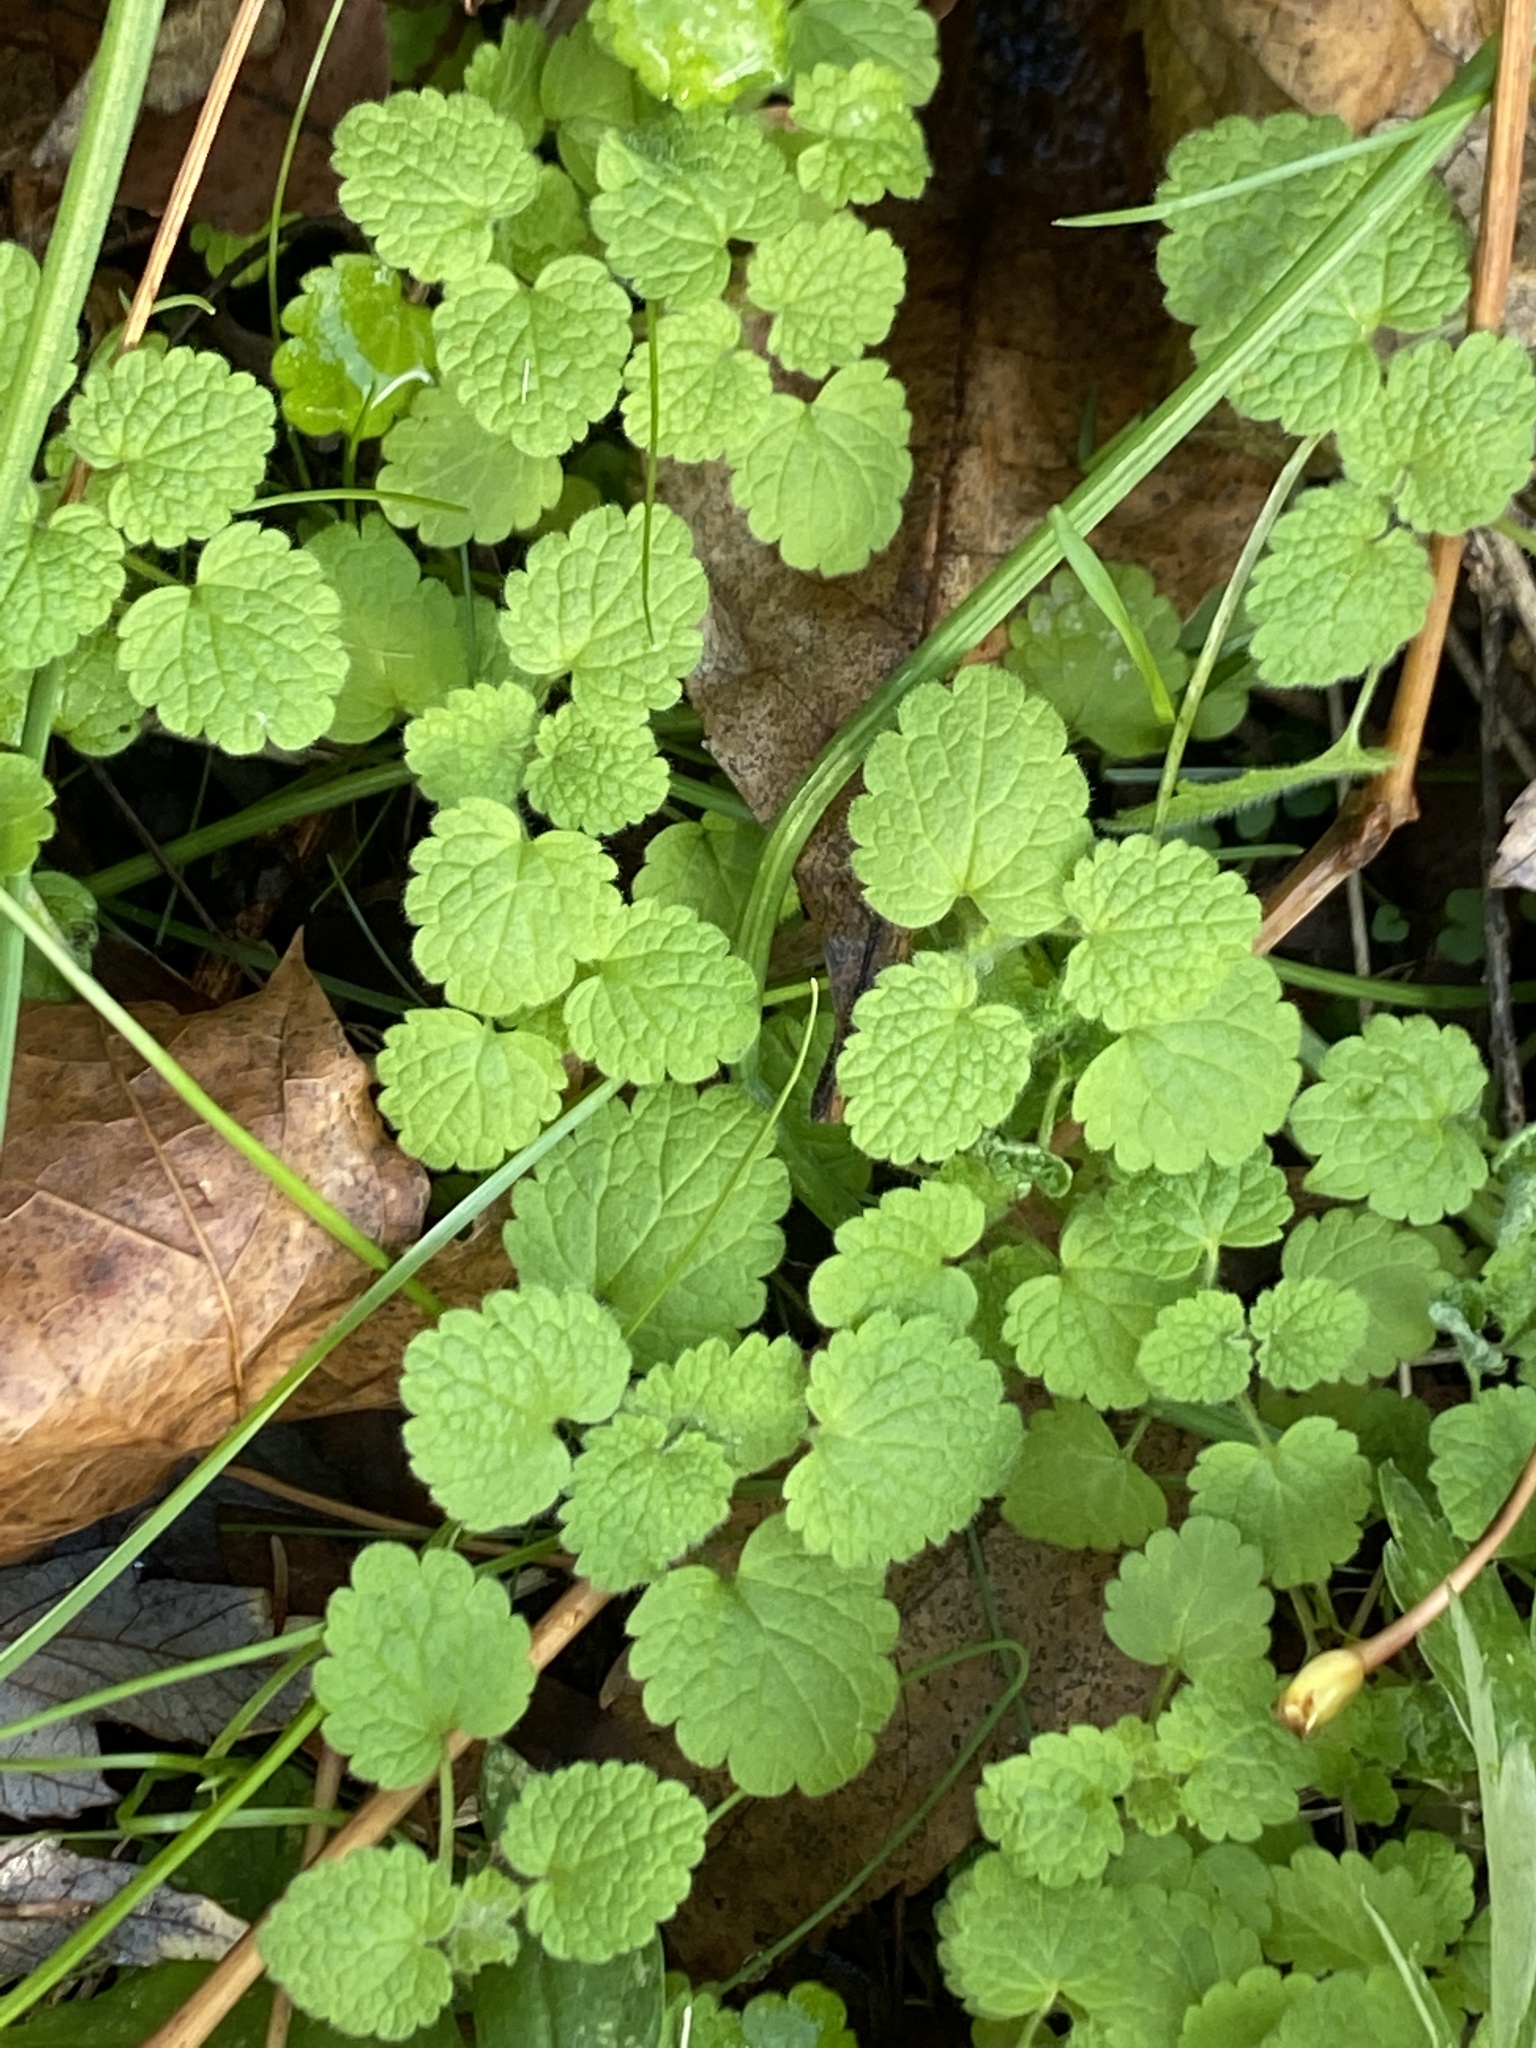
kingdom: Plantae
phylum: Tracheophyta
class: Magnoliopsida
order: Lamiales
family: Lamiaceae
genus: Lamium
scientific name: Lamium purpureum
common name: Red dead-nettle
